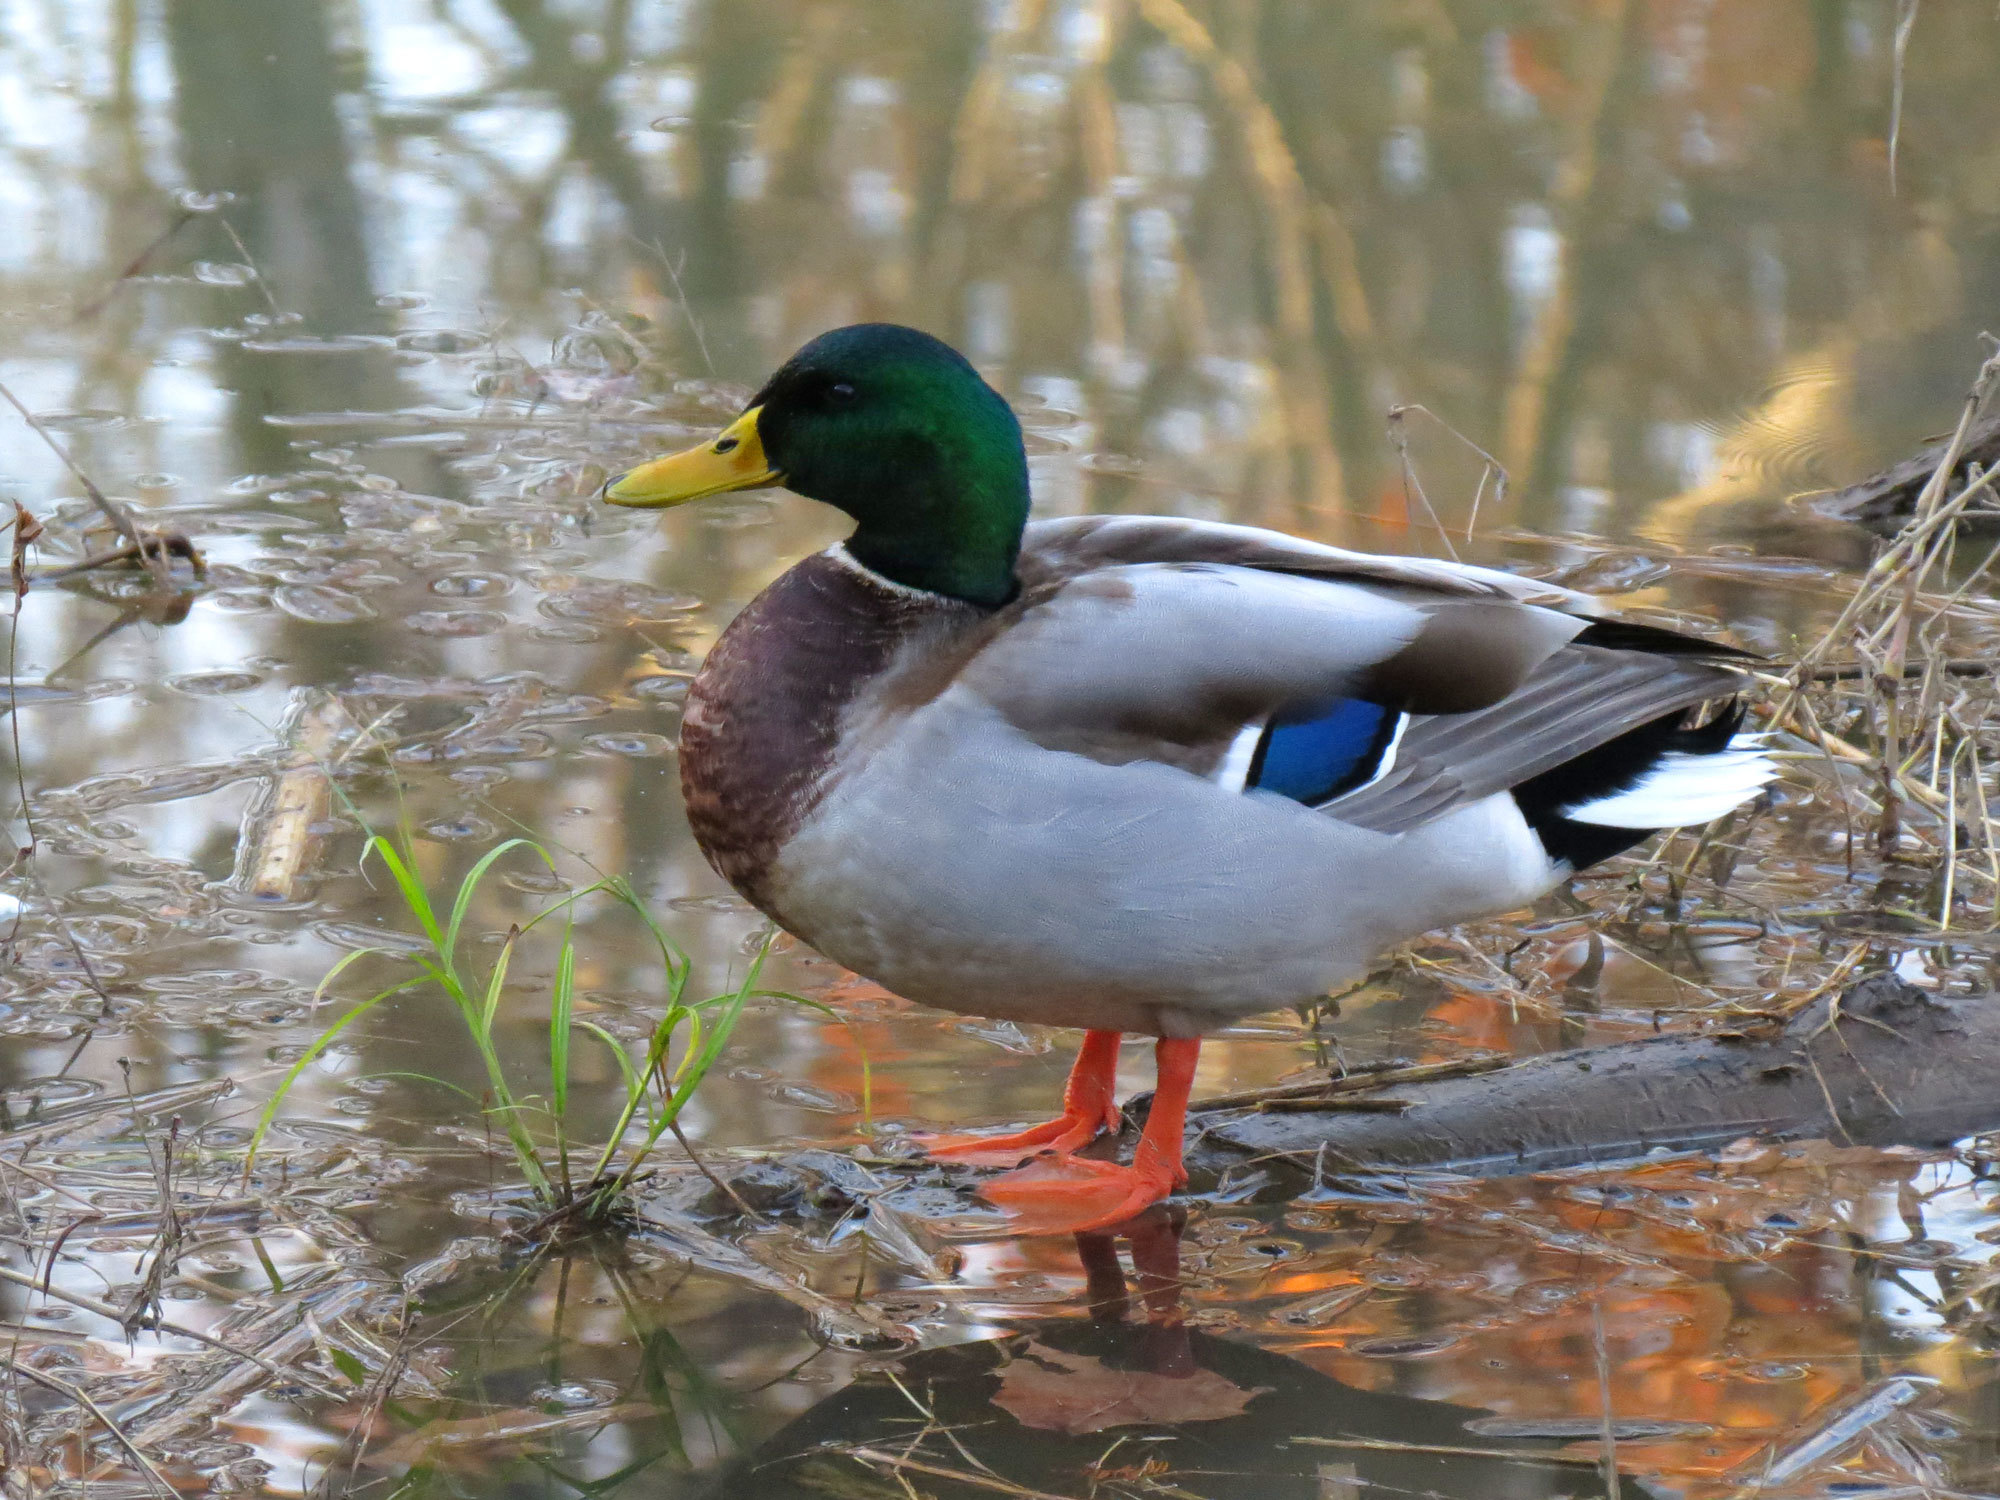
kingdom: Animalia
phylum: Chordata
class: Aves
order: Anseriformes
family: Anatidae
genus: Anas
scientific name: Anas platyrhynchos
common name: Mallard
